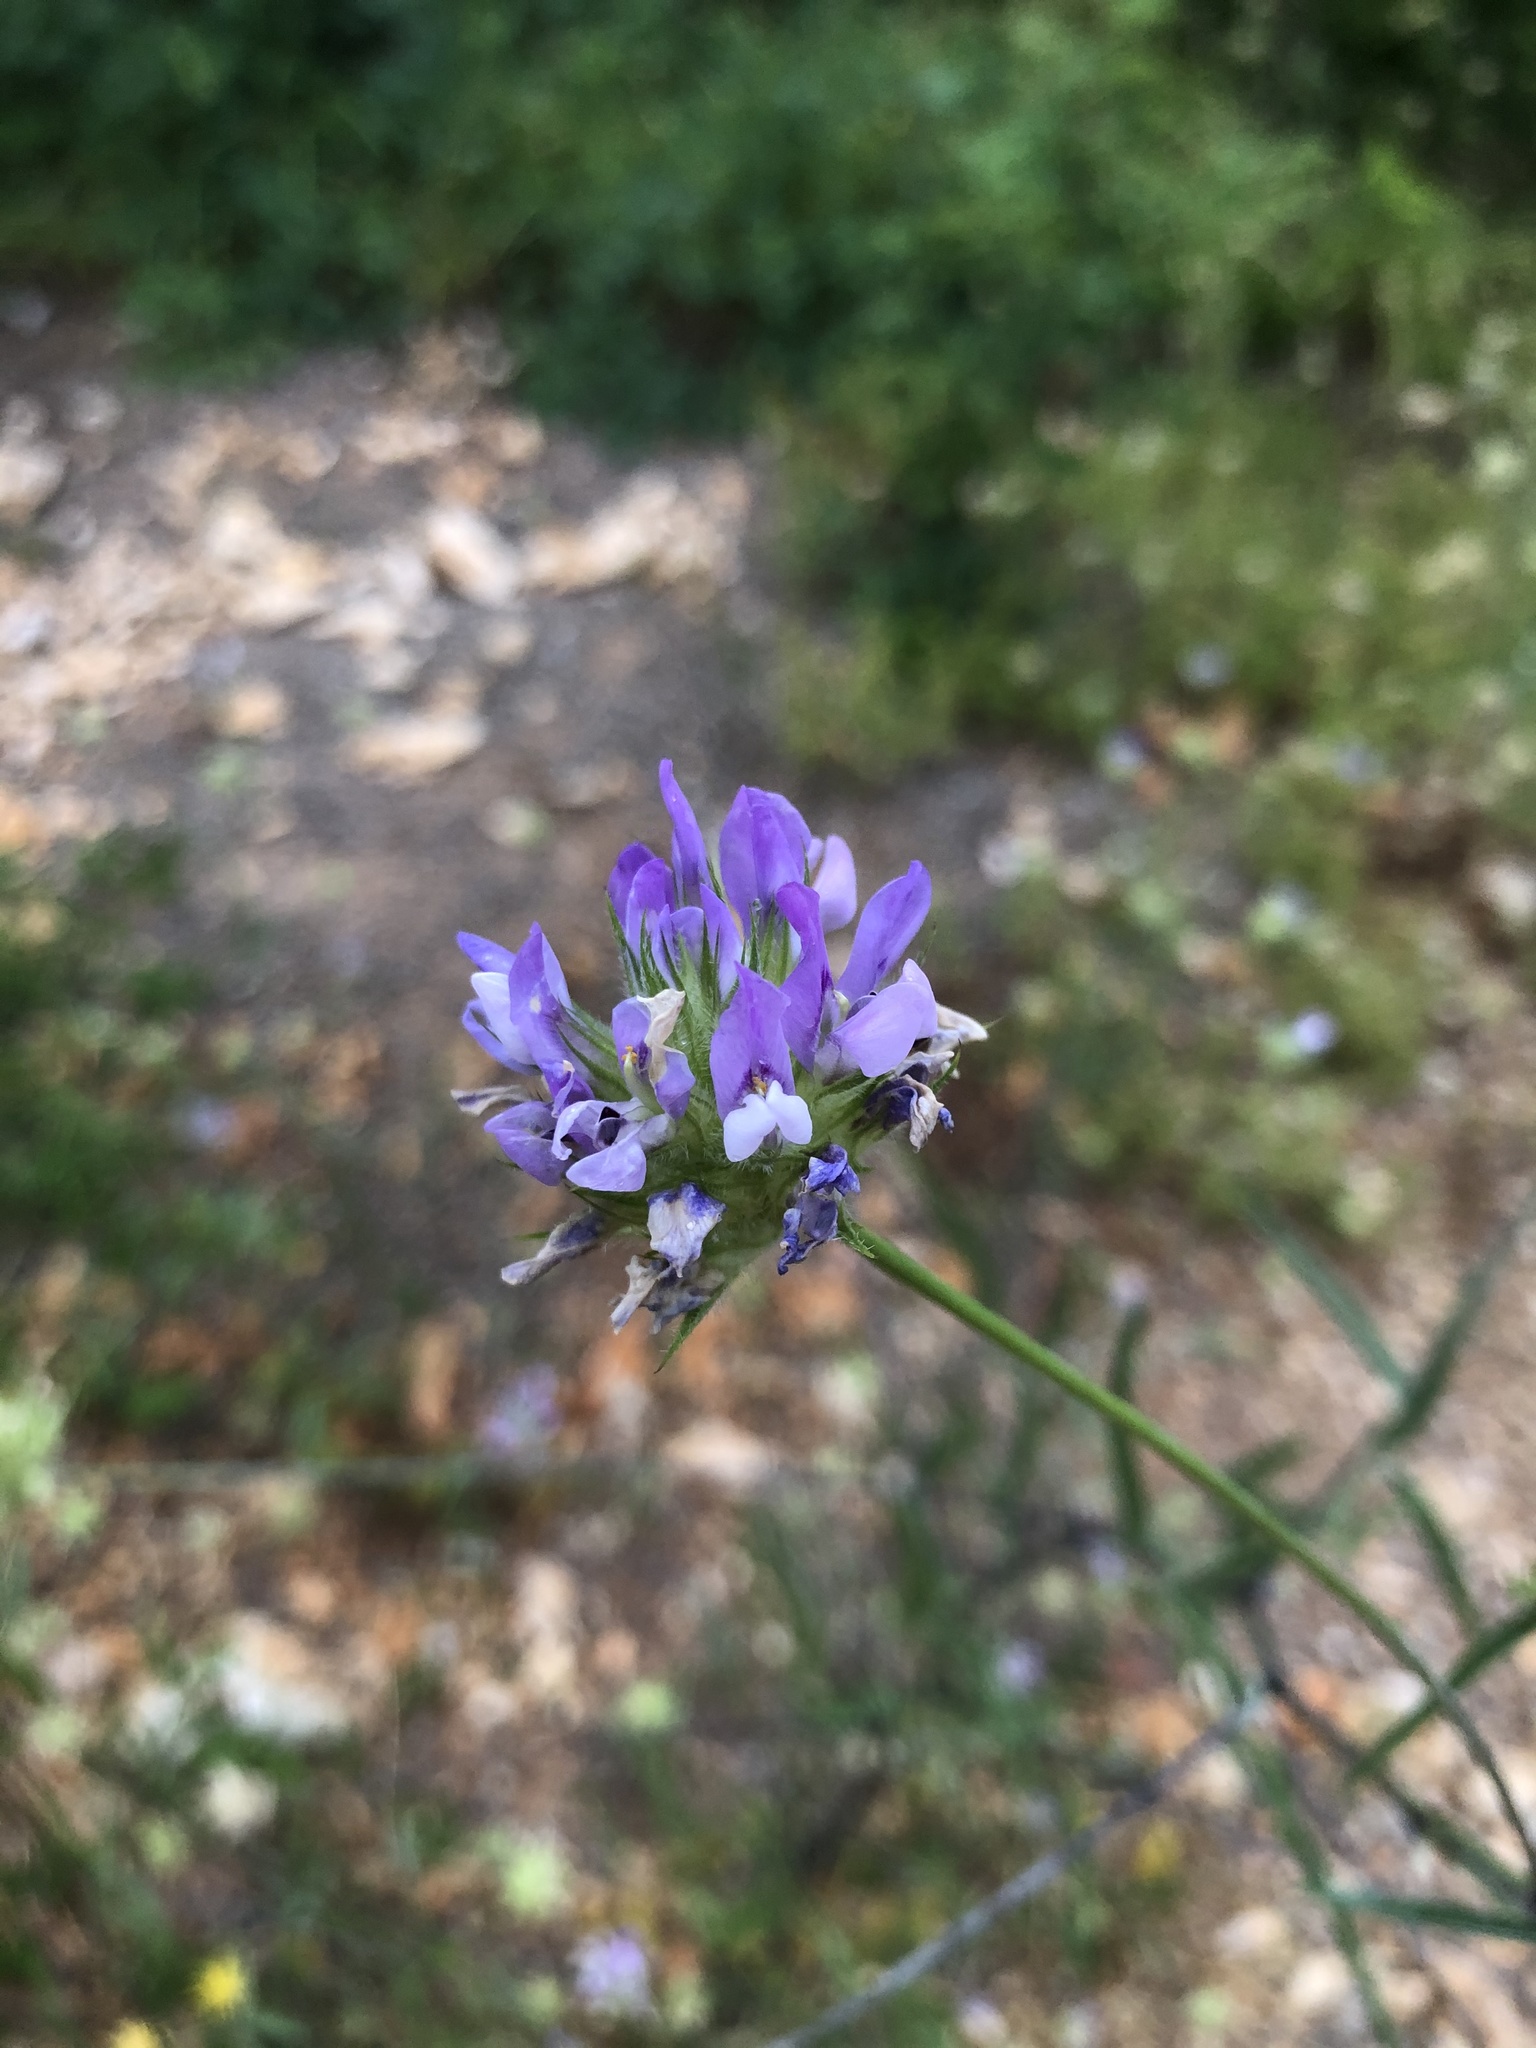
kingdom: Plantae
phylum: Tracheophyta
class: Magnoliopsida
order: Fabales
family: Fabaceae
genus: Bituminaria
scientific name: Bituminaria bituminosa
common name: Arabian pea
